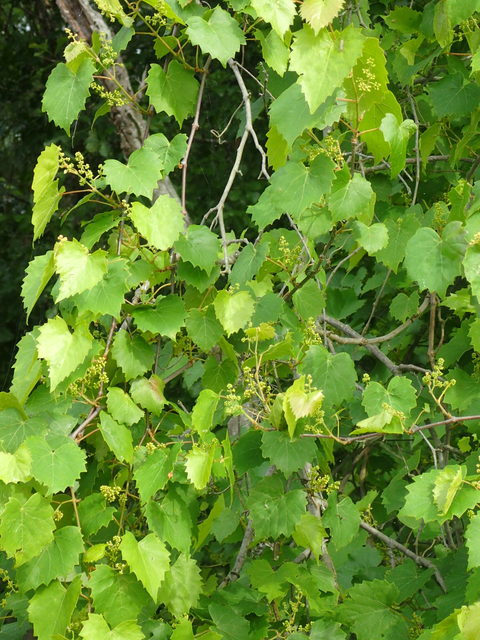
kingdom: Plantae
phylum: Tracheophyta
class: Magnoliopsida
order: Vitales
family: Vitaceae
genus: Vitis
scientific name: Vitis rotundifolia
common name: Muscadine grape
